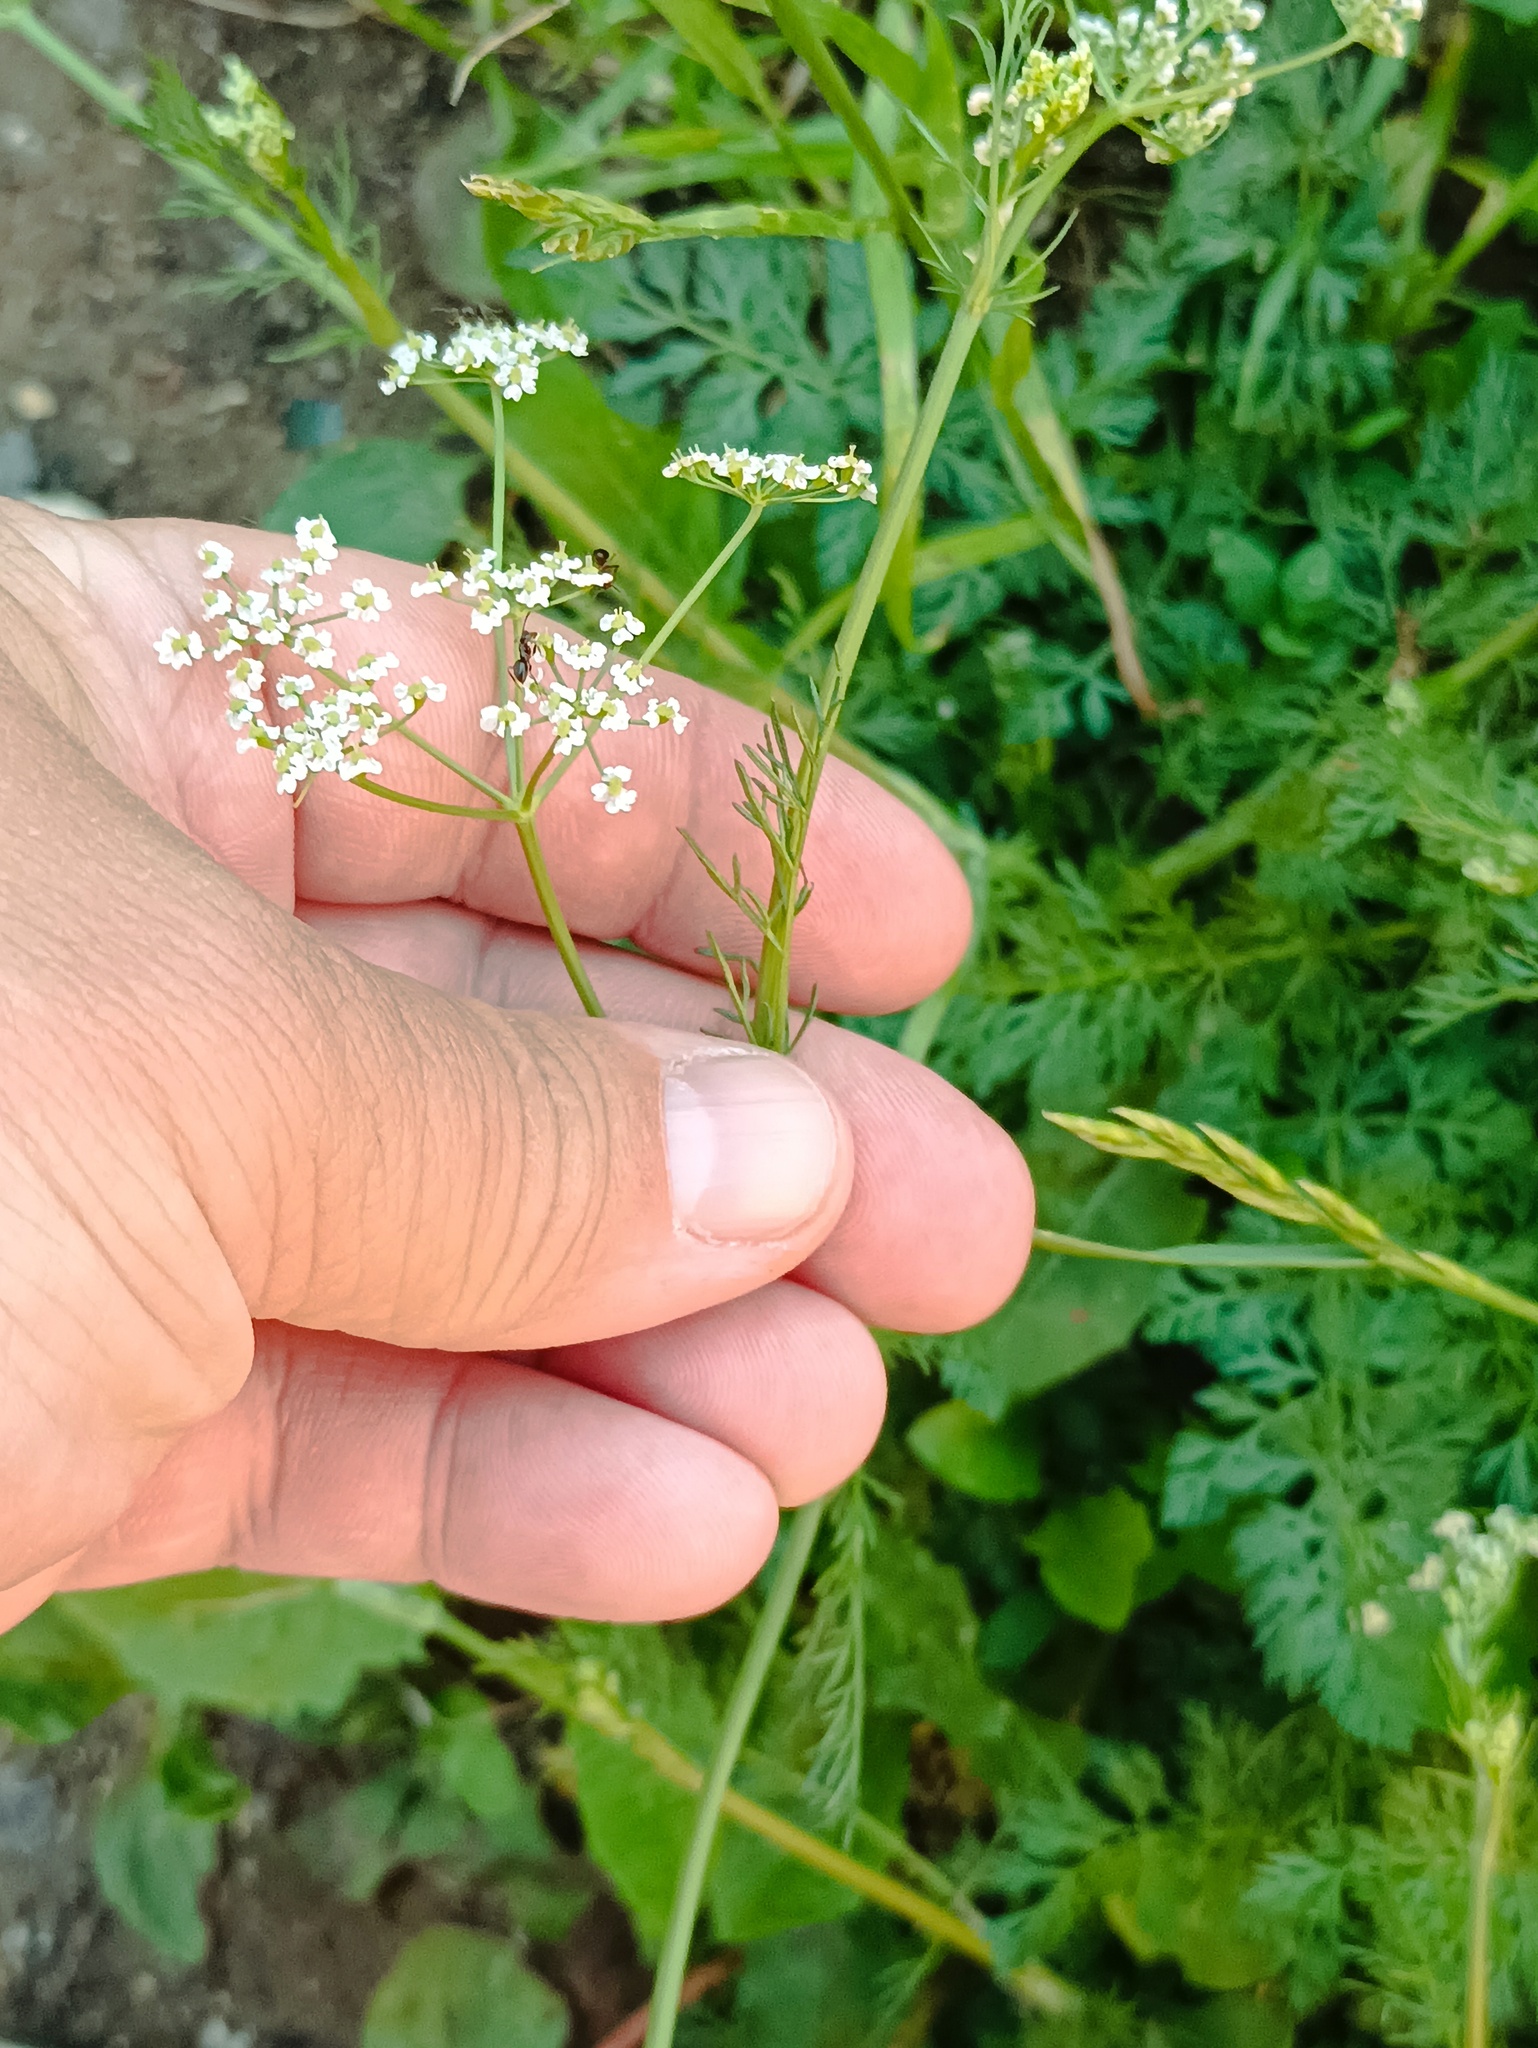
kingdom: Plantae
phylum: Tracheophyta
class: Magnoliopsida
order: Apiales
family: Apiaceae
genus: Carum
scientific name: Carum carvi
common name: Caraway
